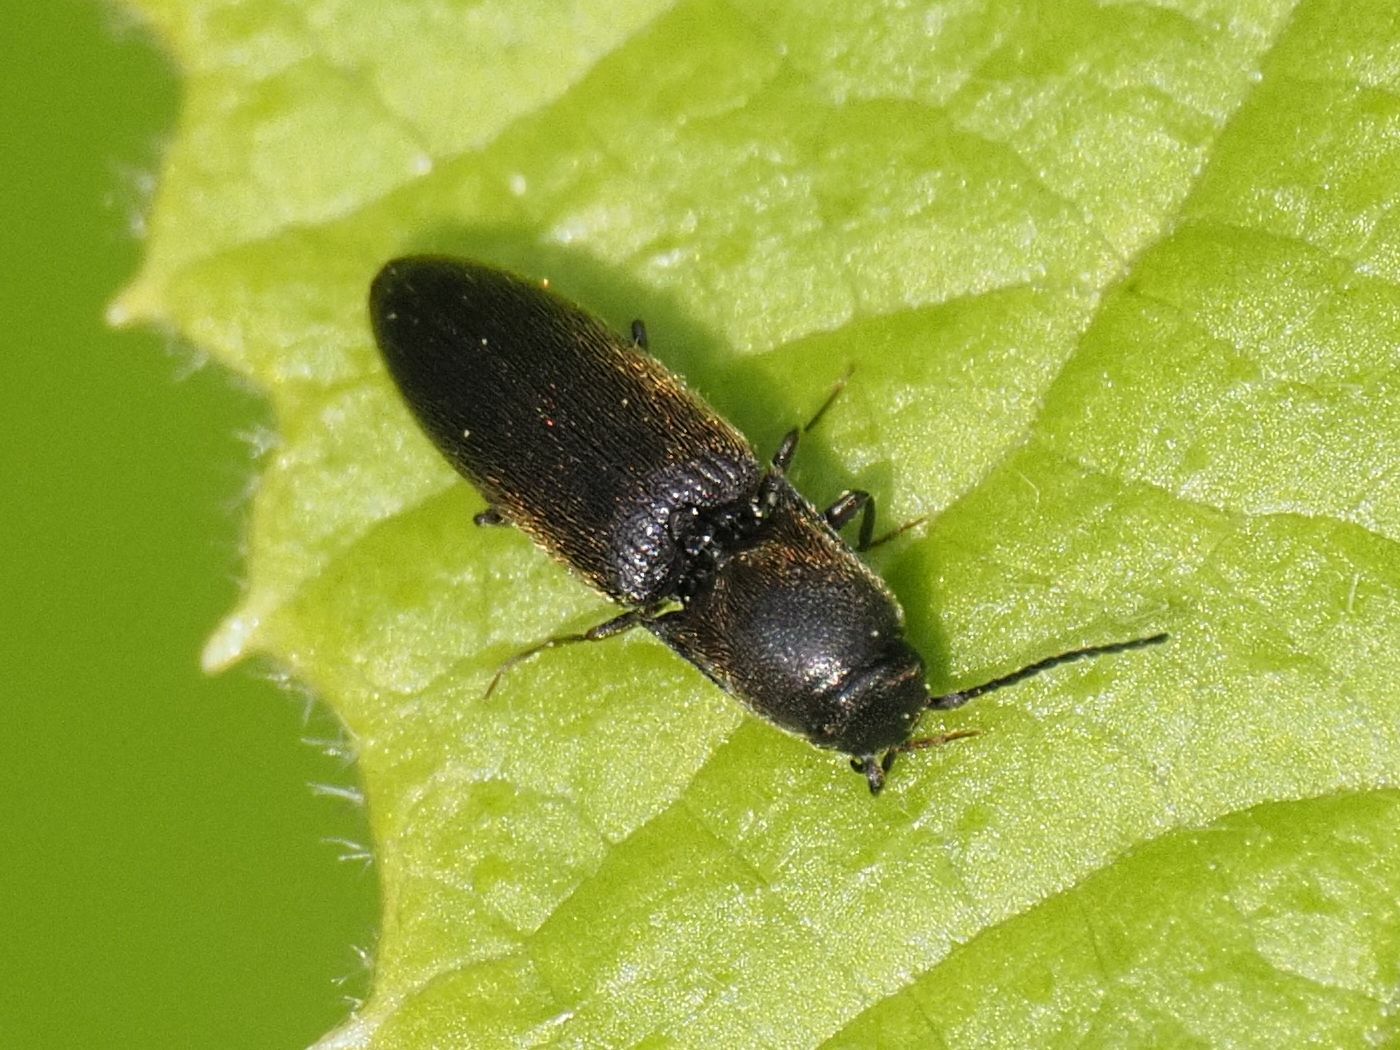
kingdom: Animalia
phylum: Arthropoda
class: Insecta
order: Coleoptera
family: Elateridae
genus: Ectinus
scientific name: Ectinus aterrimus
